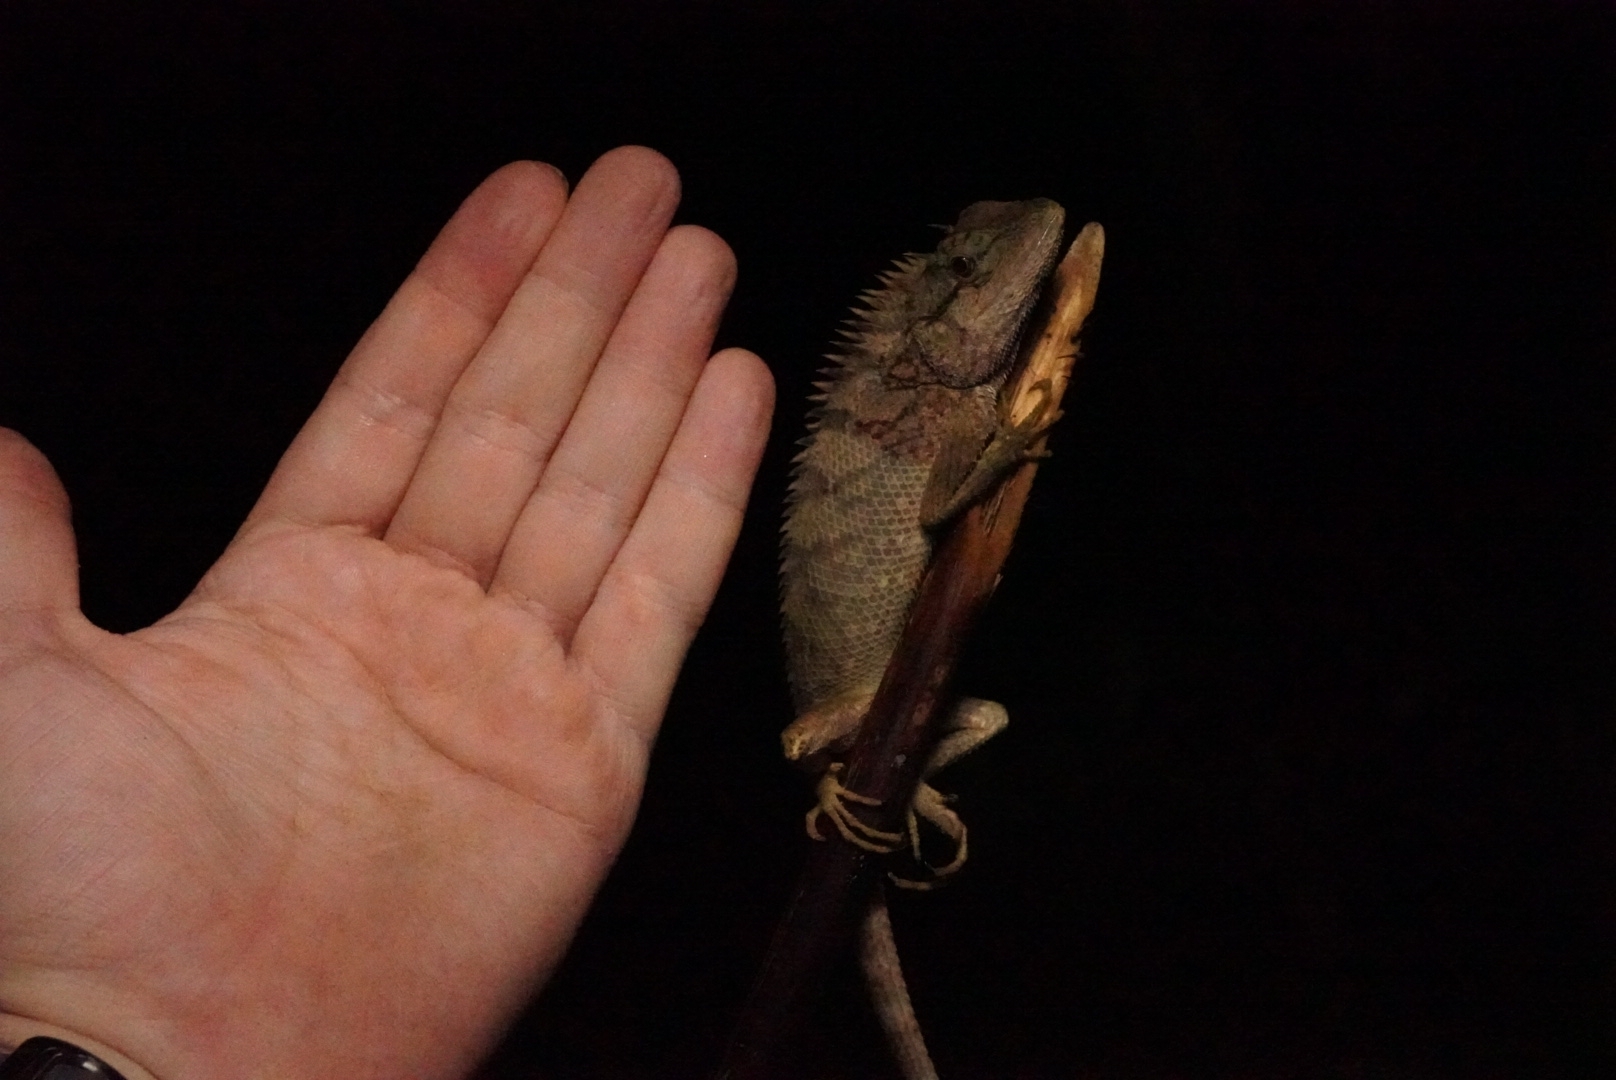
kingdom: Animalia
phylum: Chordata
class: Squamata
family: Agamidae
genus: Calotes
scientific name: Calotes emma
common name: Thailand bloodsucker
